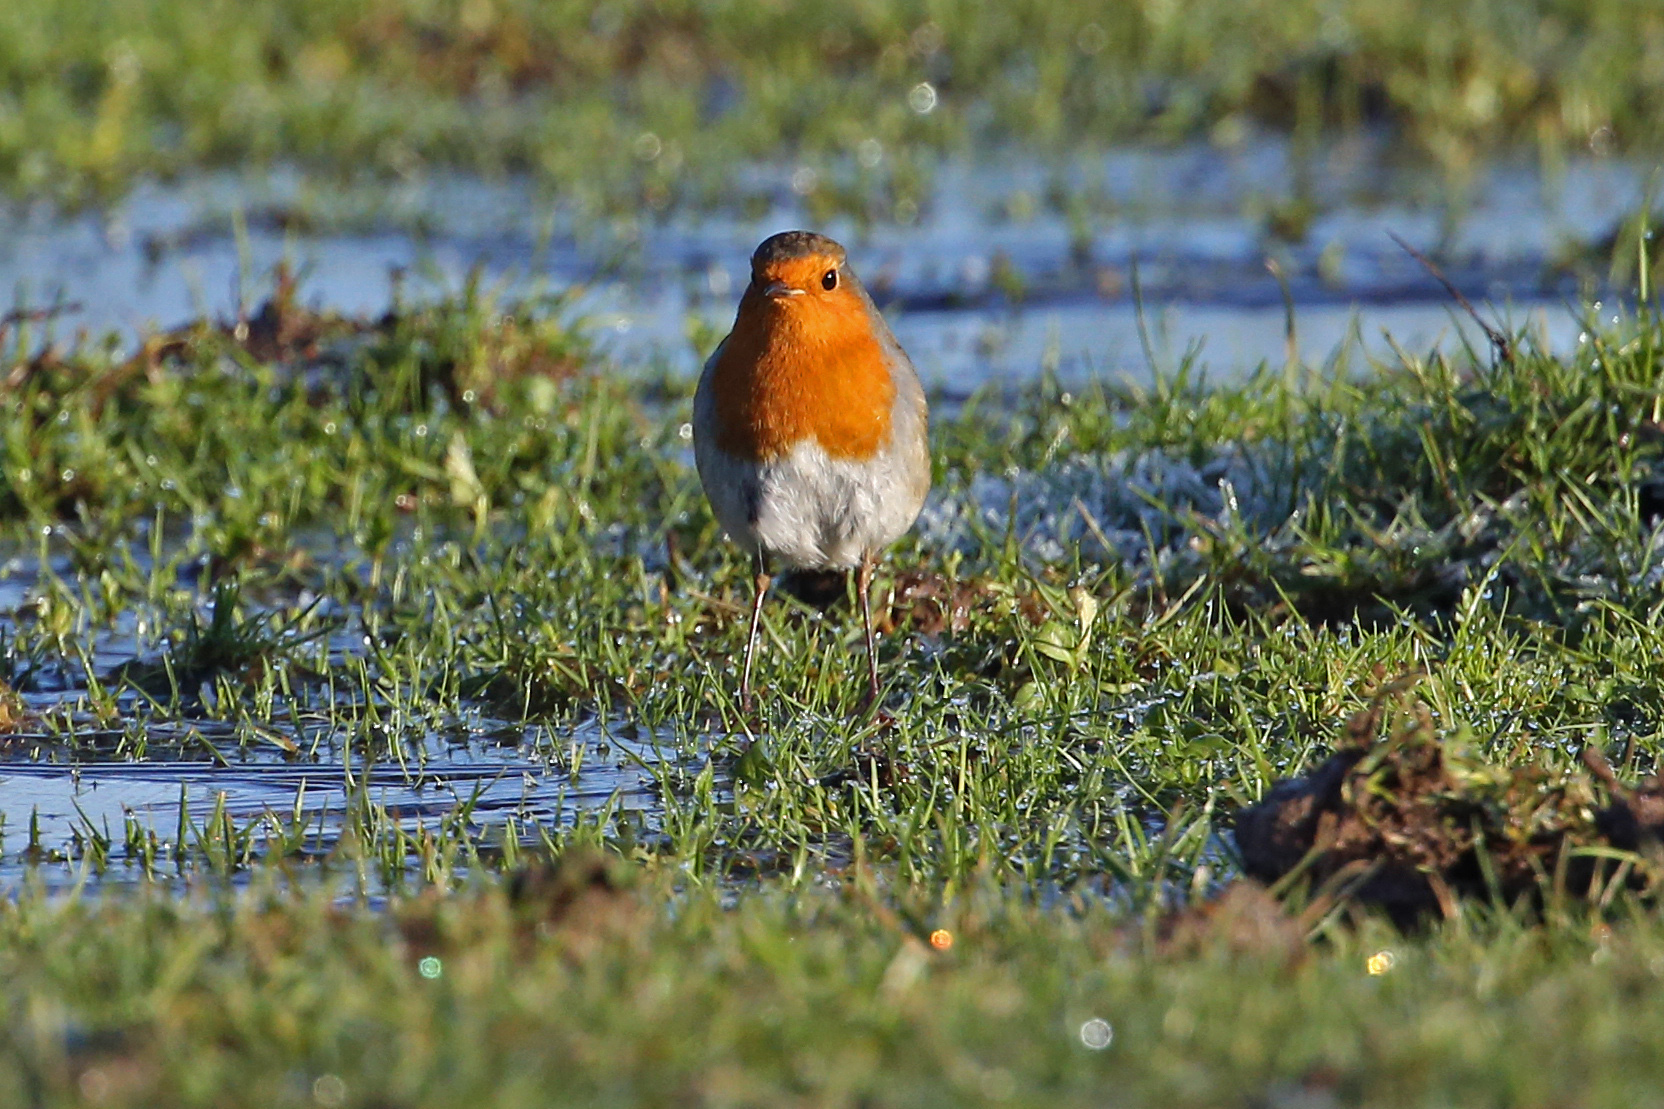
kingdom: Animalia
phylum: Chordata
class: Aves
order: Passeriformes
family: Muscicapidae
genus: Erithacus
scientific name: Erithacus rubecula
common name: European robin
